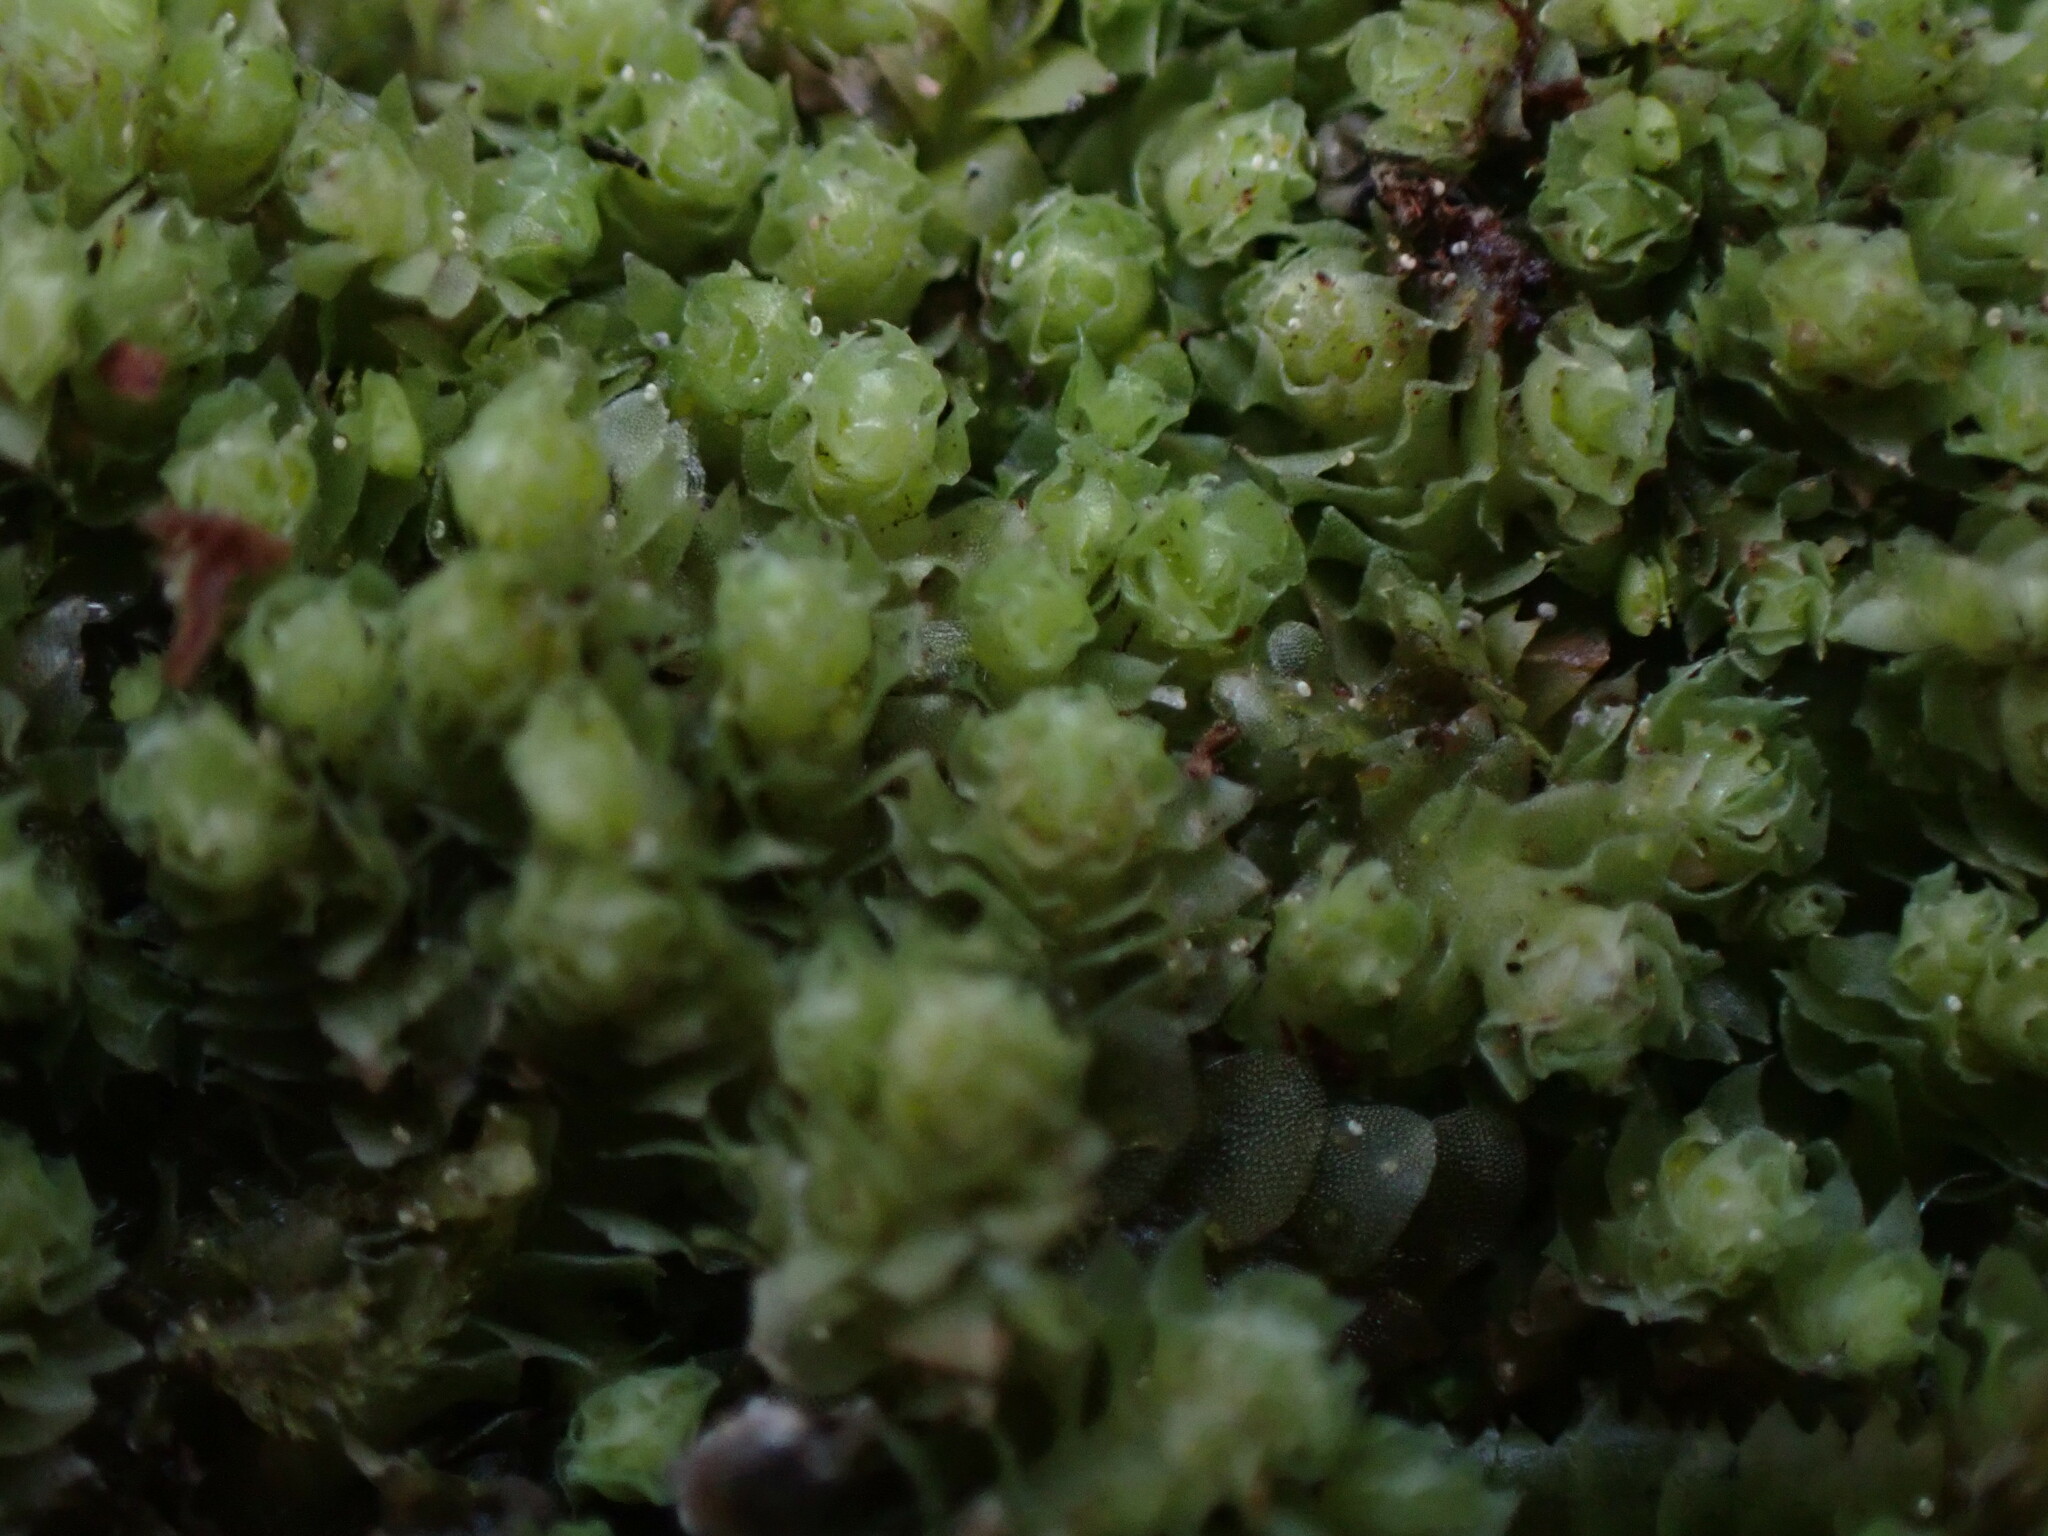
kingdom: Plantae
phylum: Marchantiophyta
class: Jungermanniopsida
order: Jungermanniales
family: Scapaniaceae
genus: Schistochilopsis
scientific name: Schistochilopsis incisa
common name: Jagged notchwort
